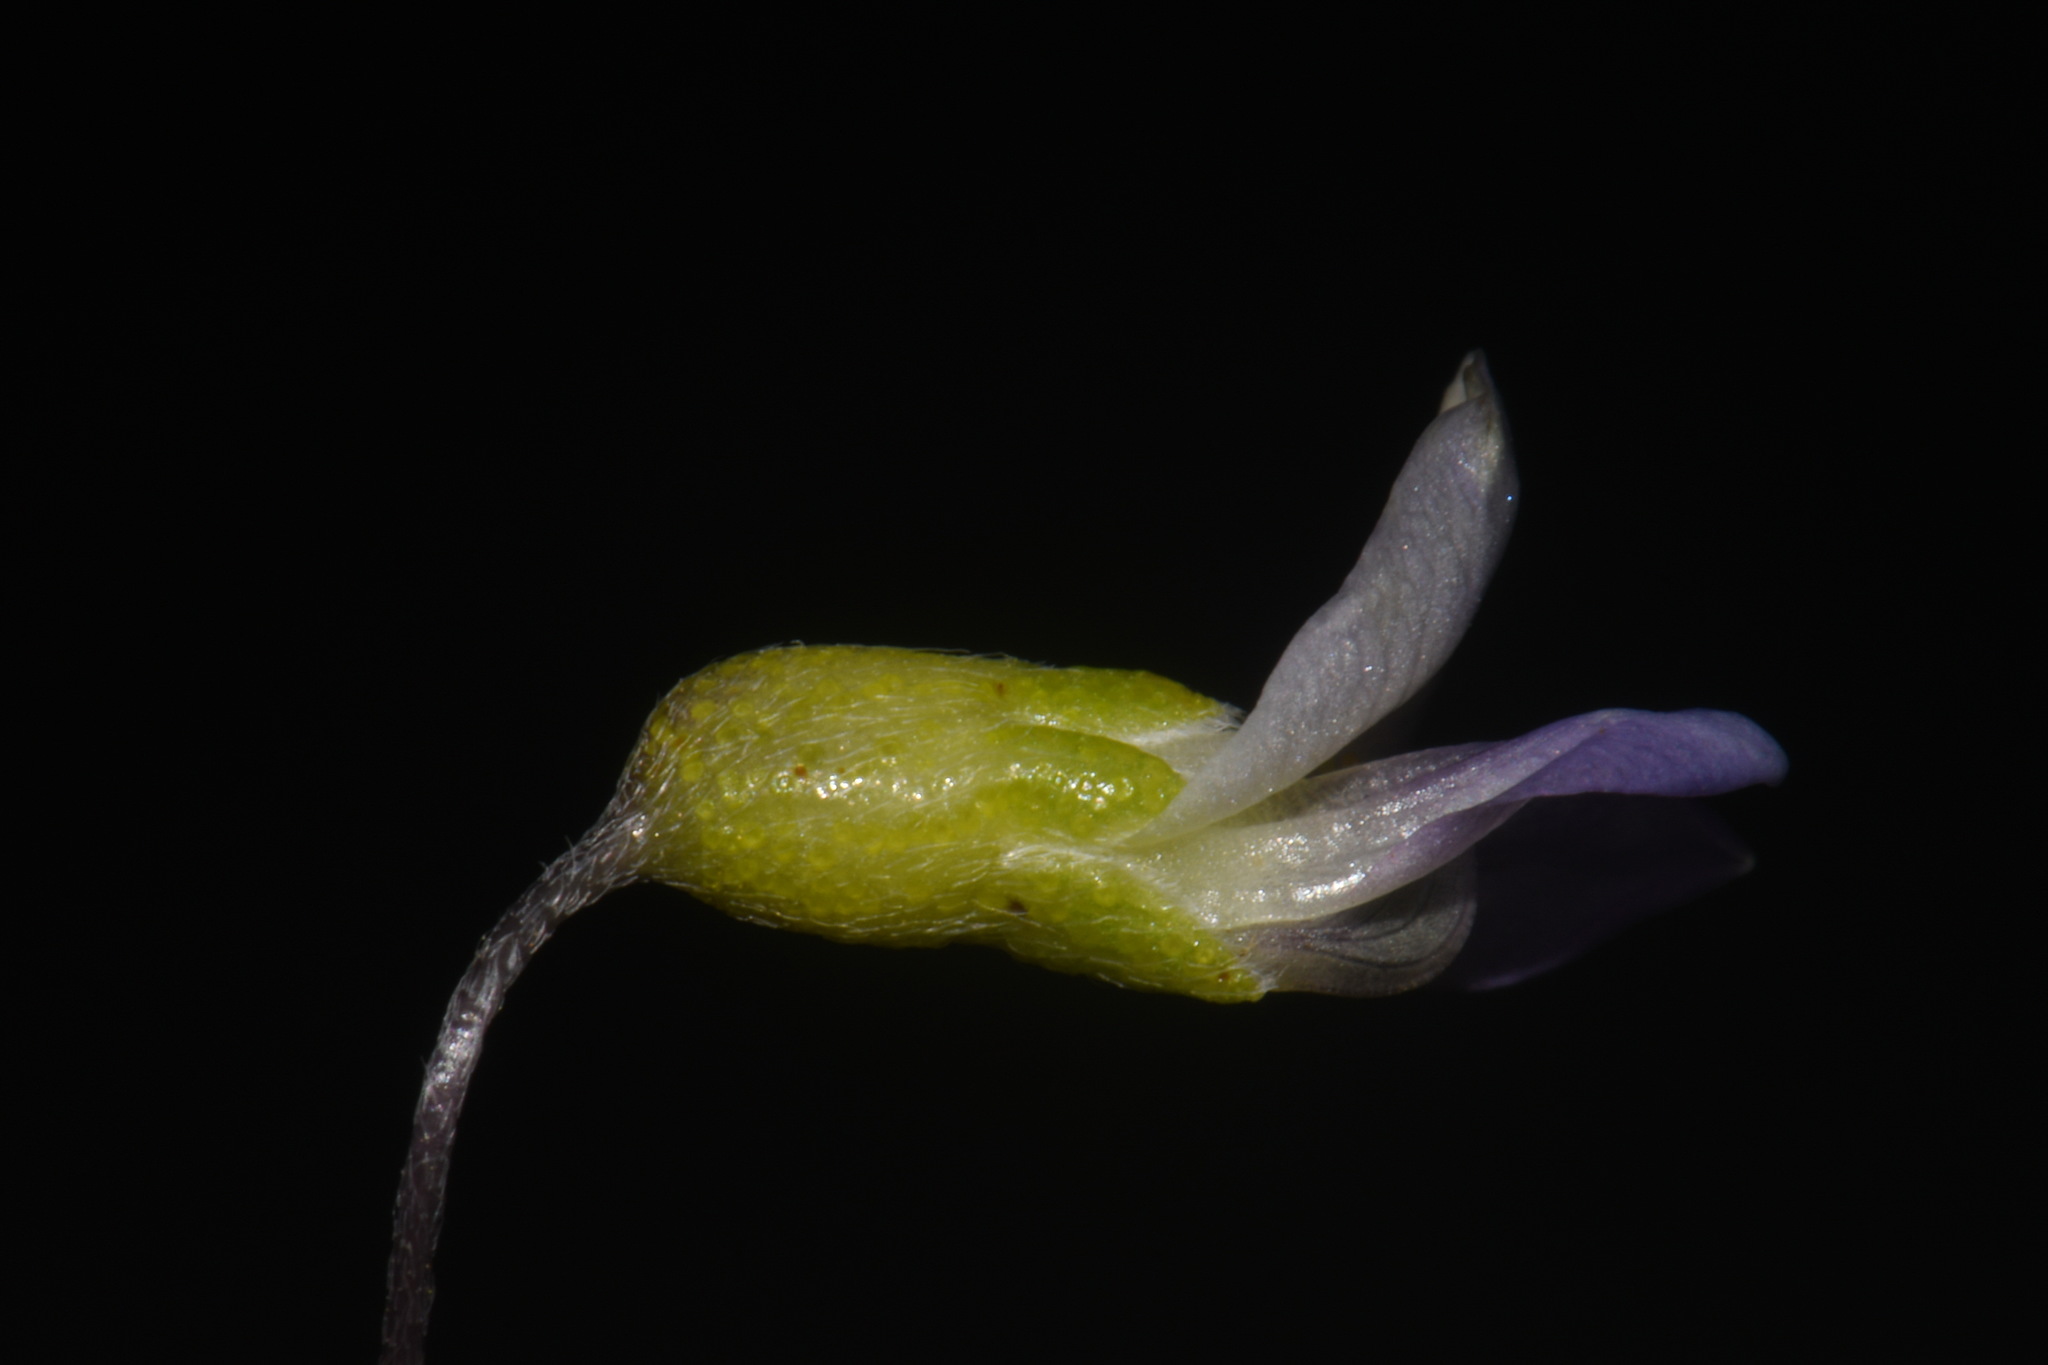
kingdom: Plantae
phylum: Tracheophyta
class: Magnoliopsida
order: Fabales
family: Fabaceae
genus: Pediomelum
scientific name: Pediomelum linearifolium
